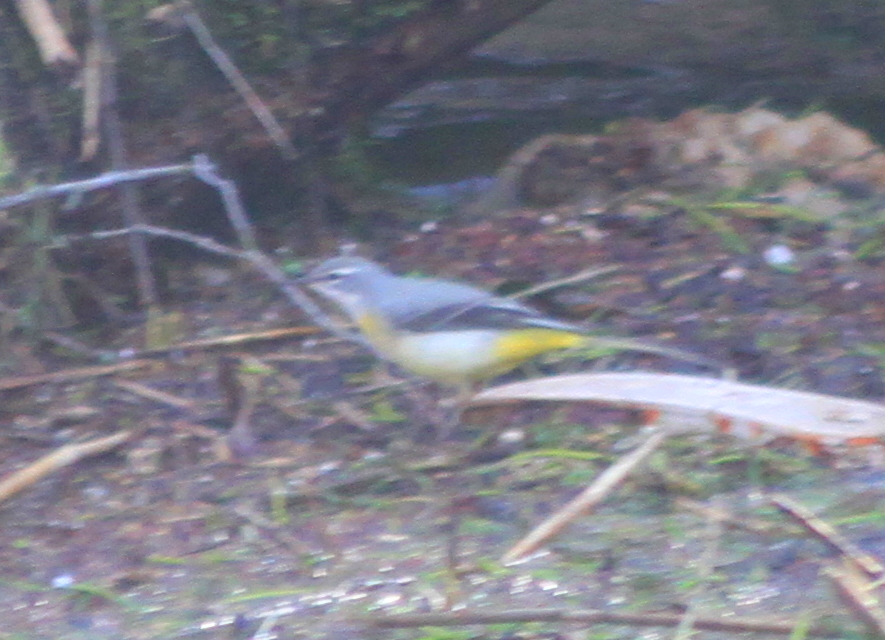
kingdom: Animalia
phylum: Chordata
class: Aves
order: Passeriformes
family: Motacillidae
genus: Motacilla
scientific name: Motacilla cinerea
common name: Grey wagtail
